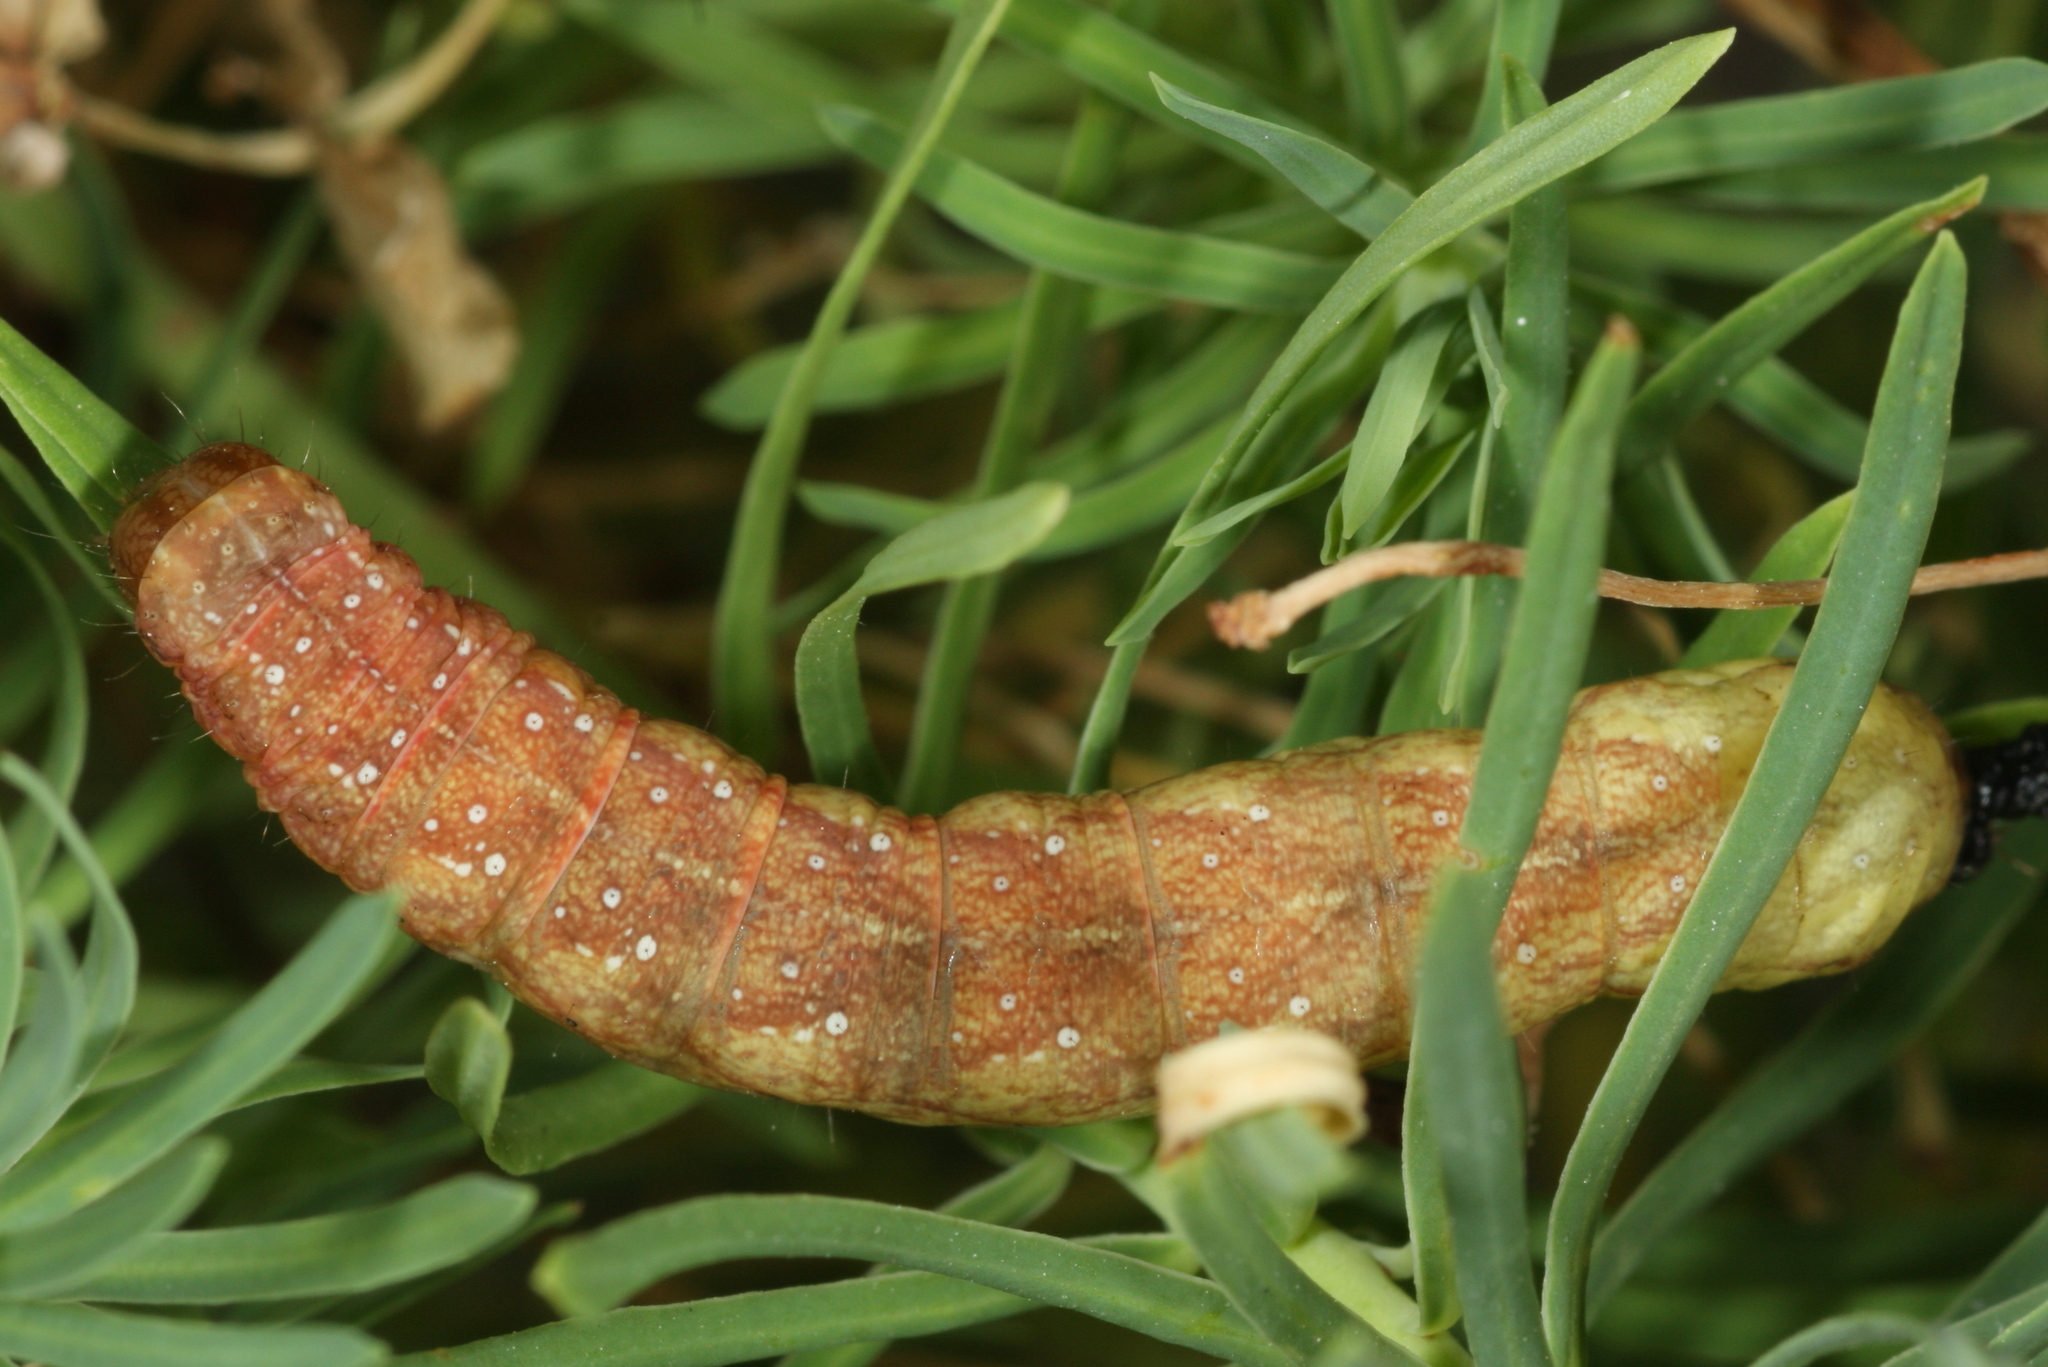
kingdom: Animalia
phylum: Arthropoda
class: Insecta
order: Lepidoptera
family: Noctuidae
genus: Sideridis
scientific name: Sideridis rivularis
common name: Campion
